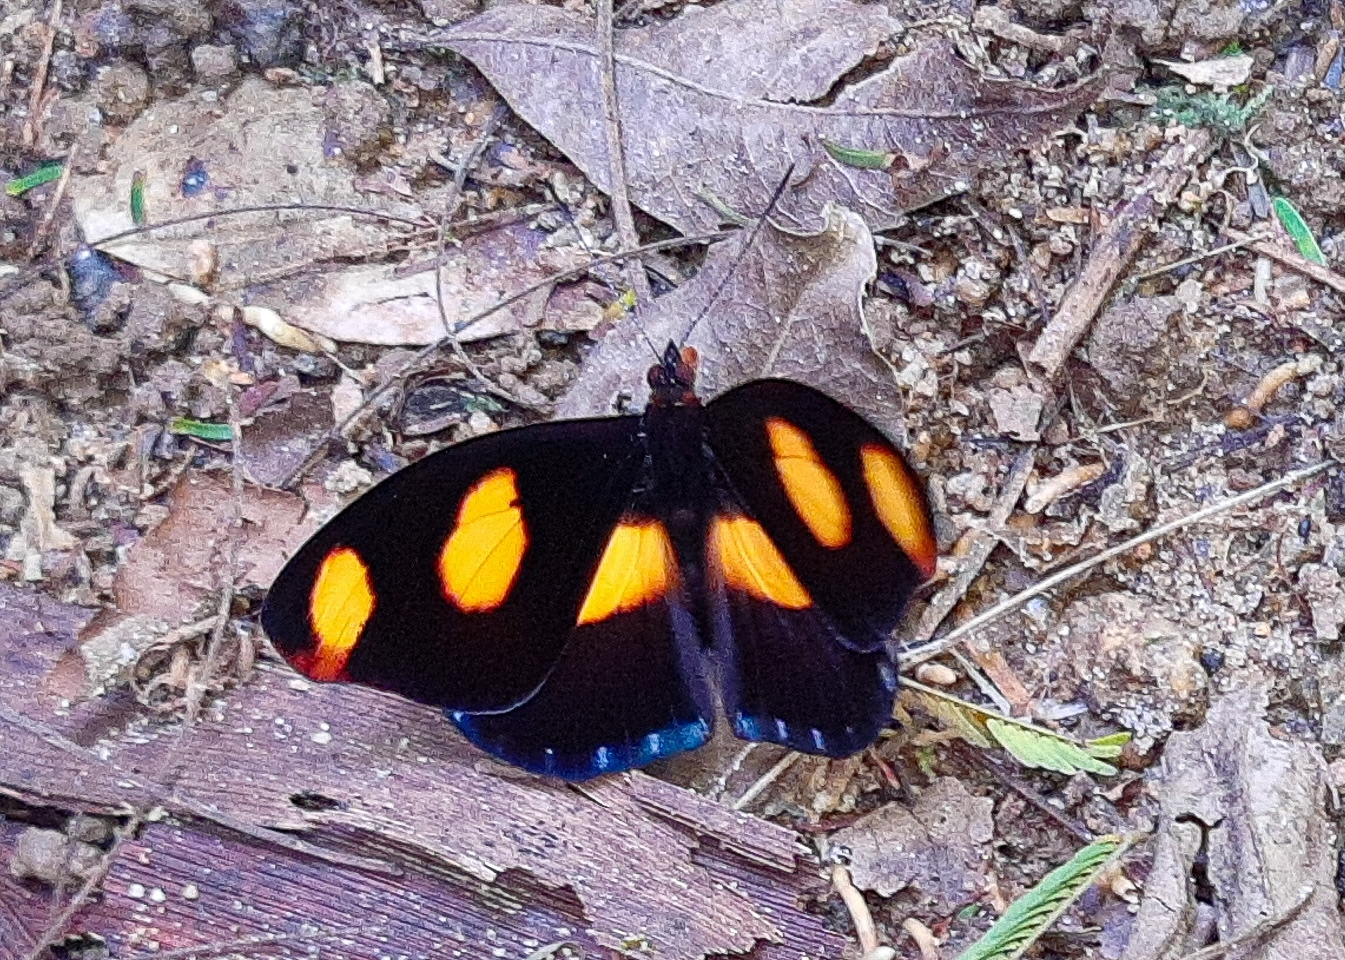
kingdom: Animalia
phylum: Arthropoda
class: Insecta
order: Lepidoptera
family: Nymphalidae
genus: Catonephele
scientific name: Catonephele numilia
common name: Blue-frosted banner
